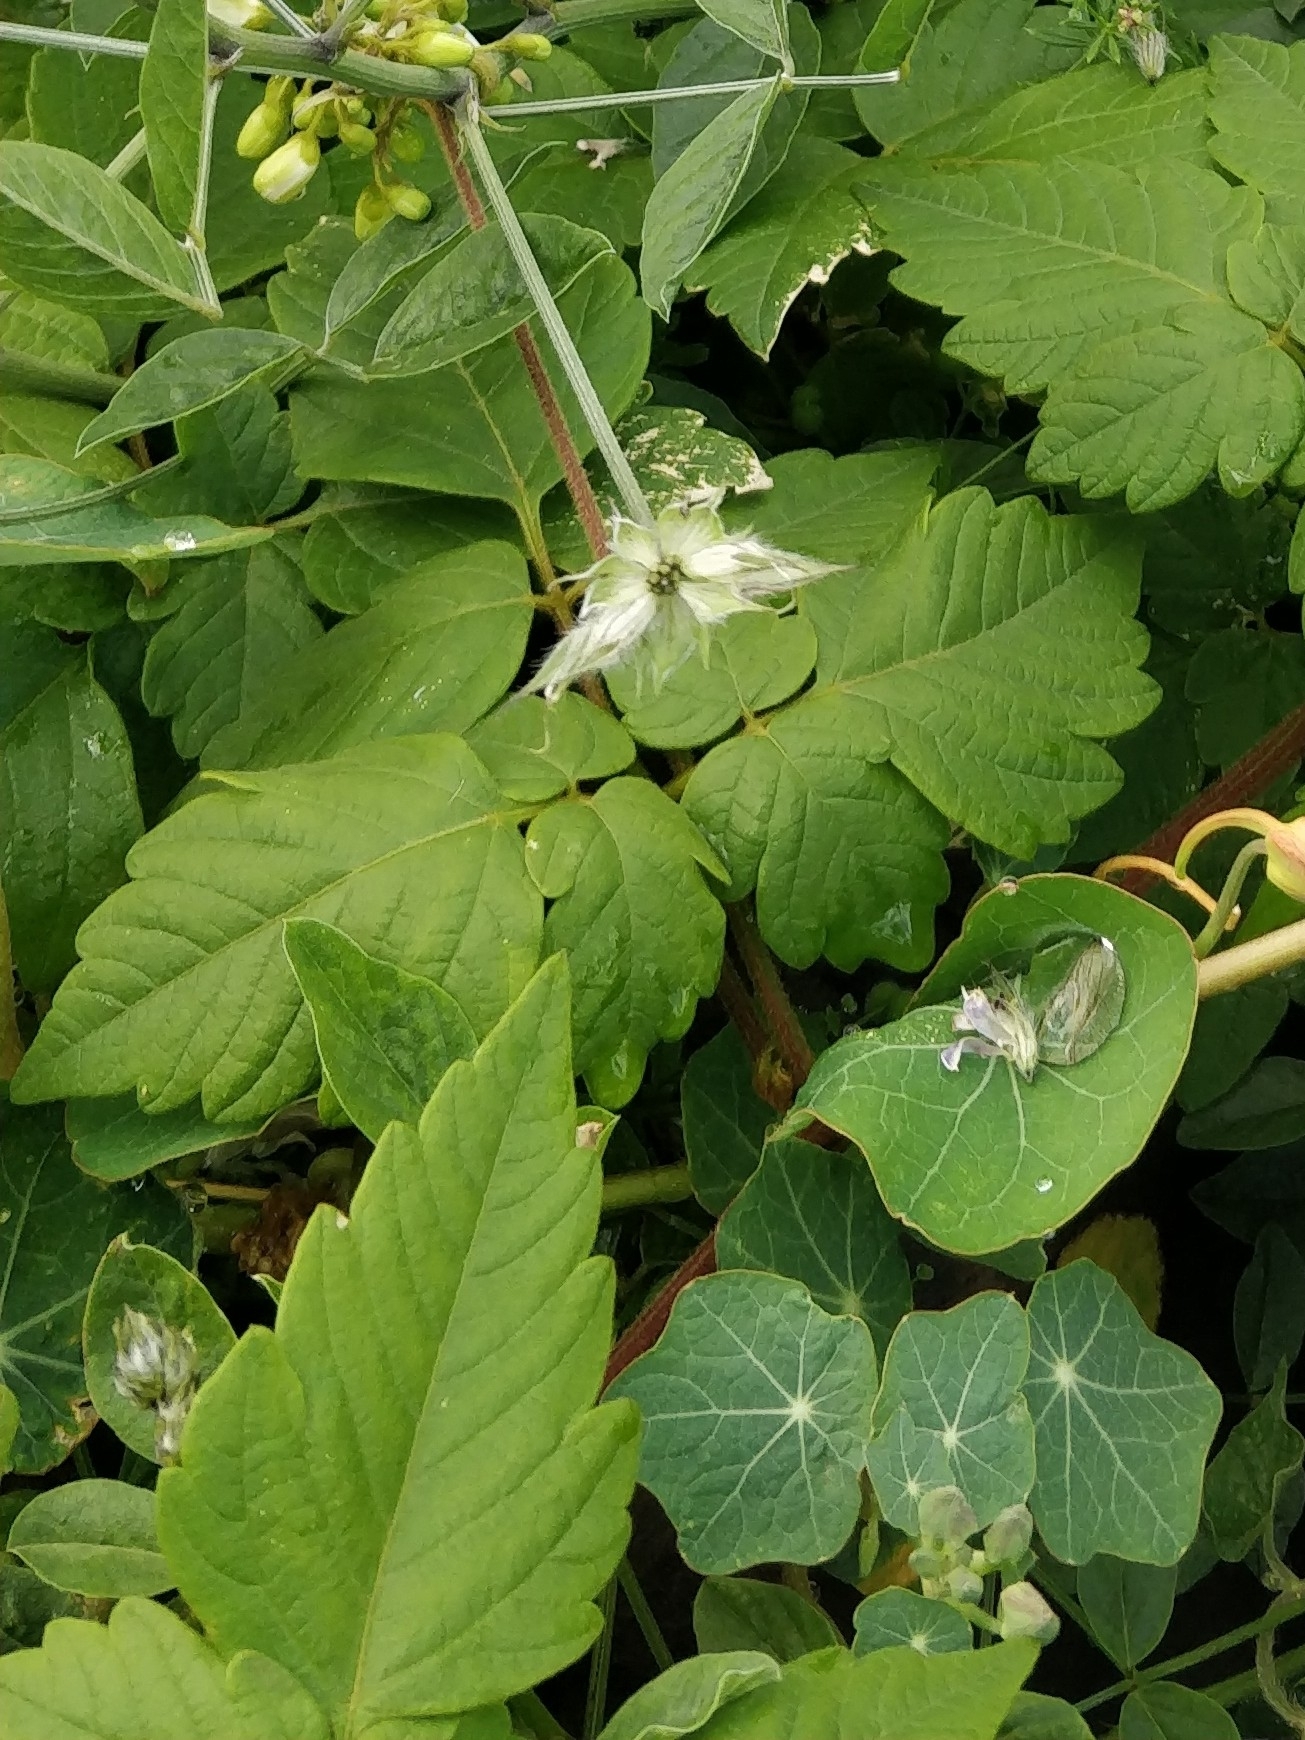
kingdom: Plantae
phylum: Tracheophyta
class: Magnoliopsida
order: Sapindales
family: Sapindaceae
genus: Cardiospermum
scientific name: Cardiospermum grandiflorum
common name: Balloon vine
